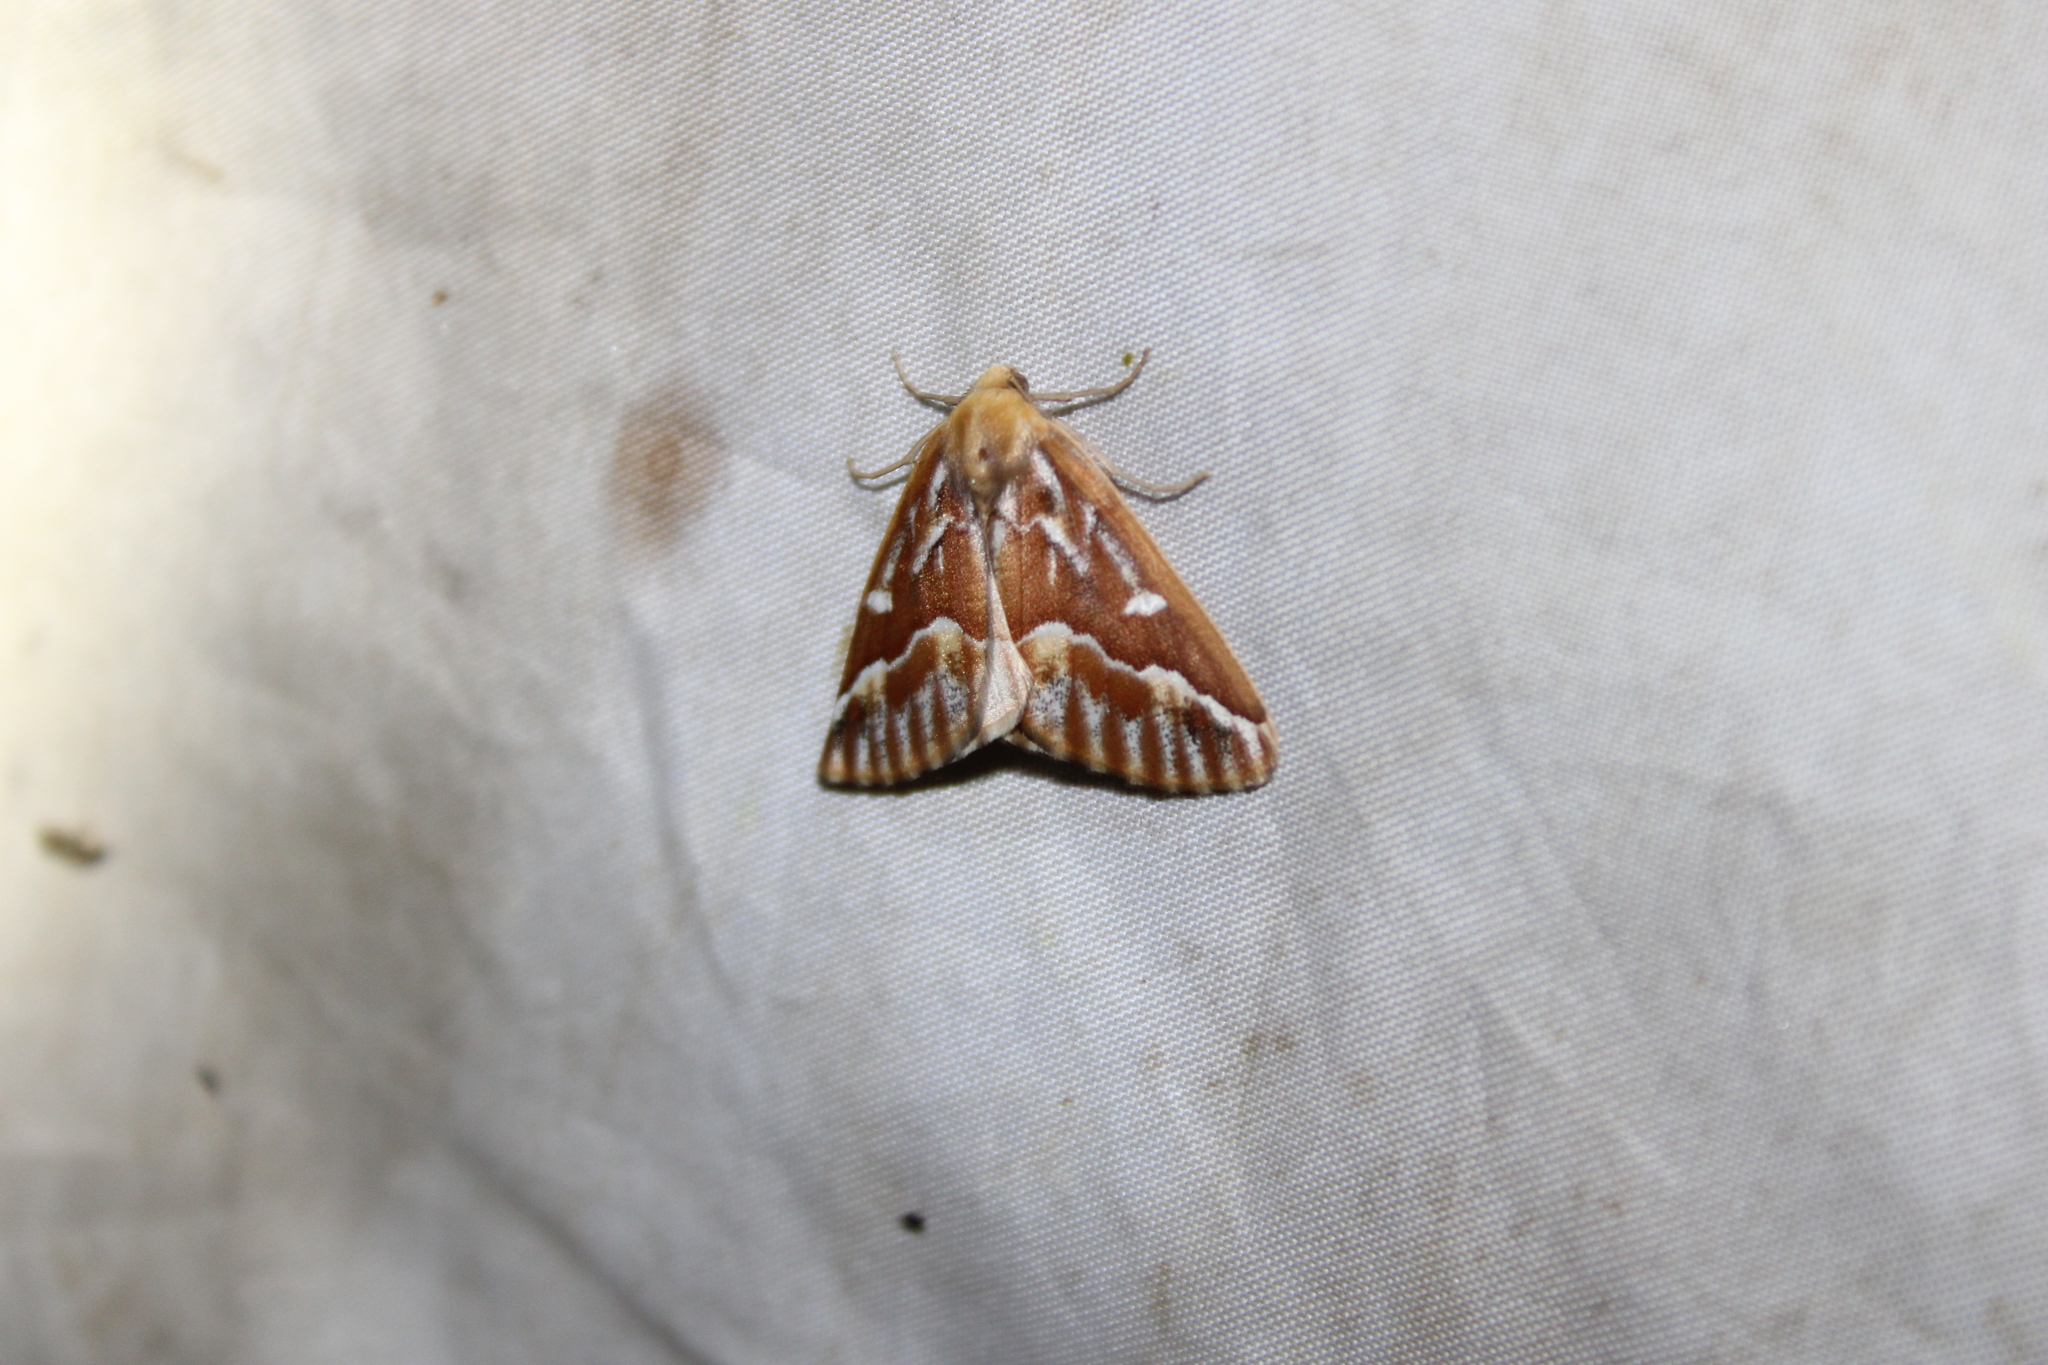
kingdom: Animalia
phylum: Arthropoda
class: Insecta
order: Lepidoptera
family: Geometridae
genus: Caripeta
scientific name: Caripeta piniata
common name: Northern pine looper moth
